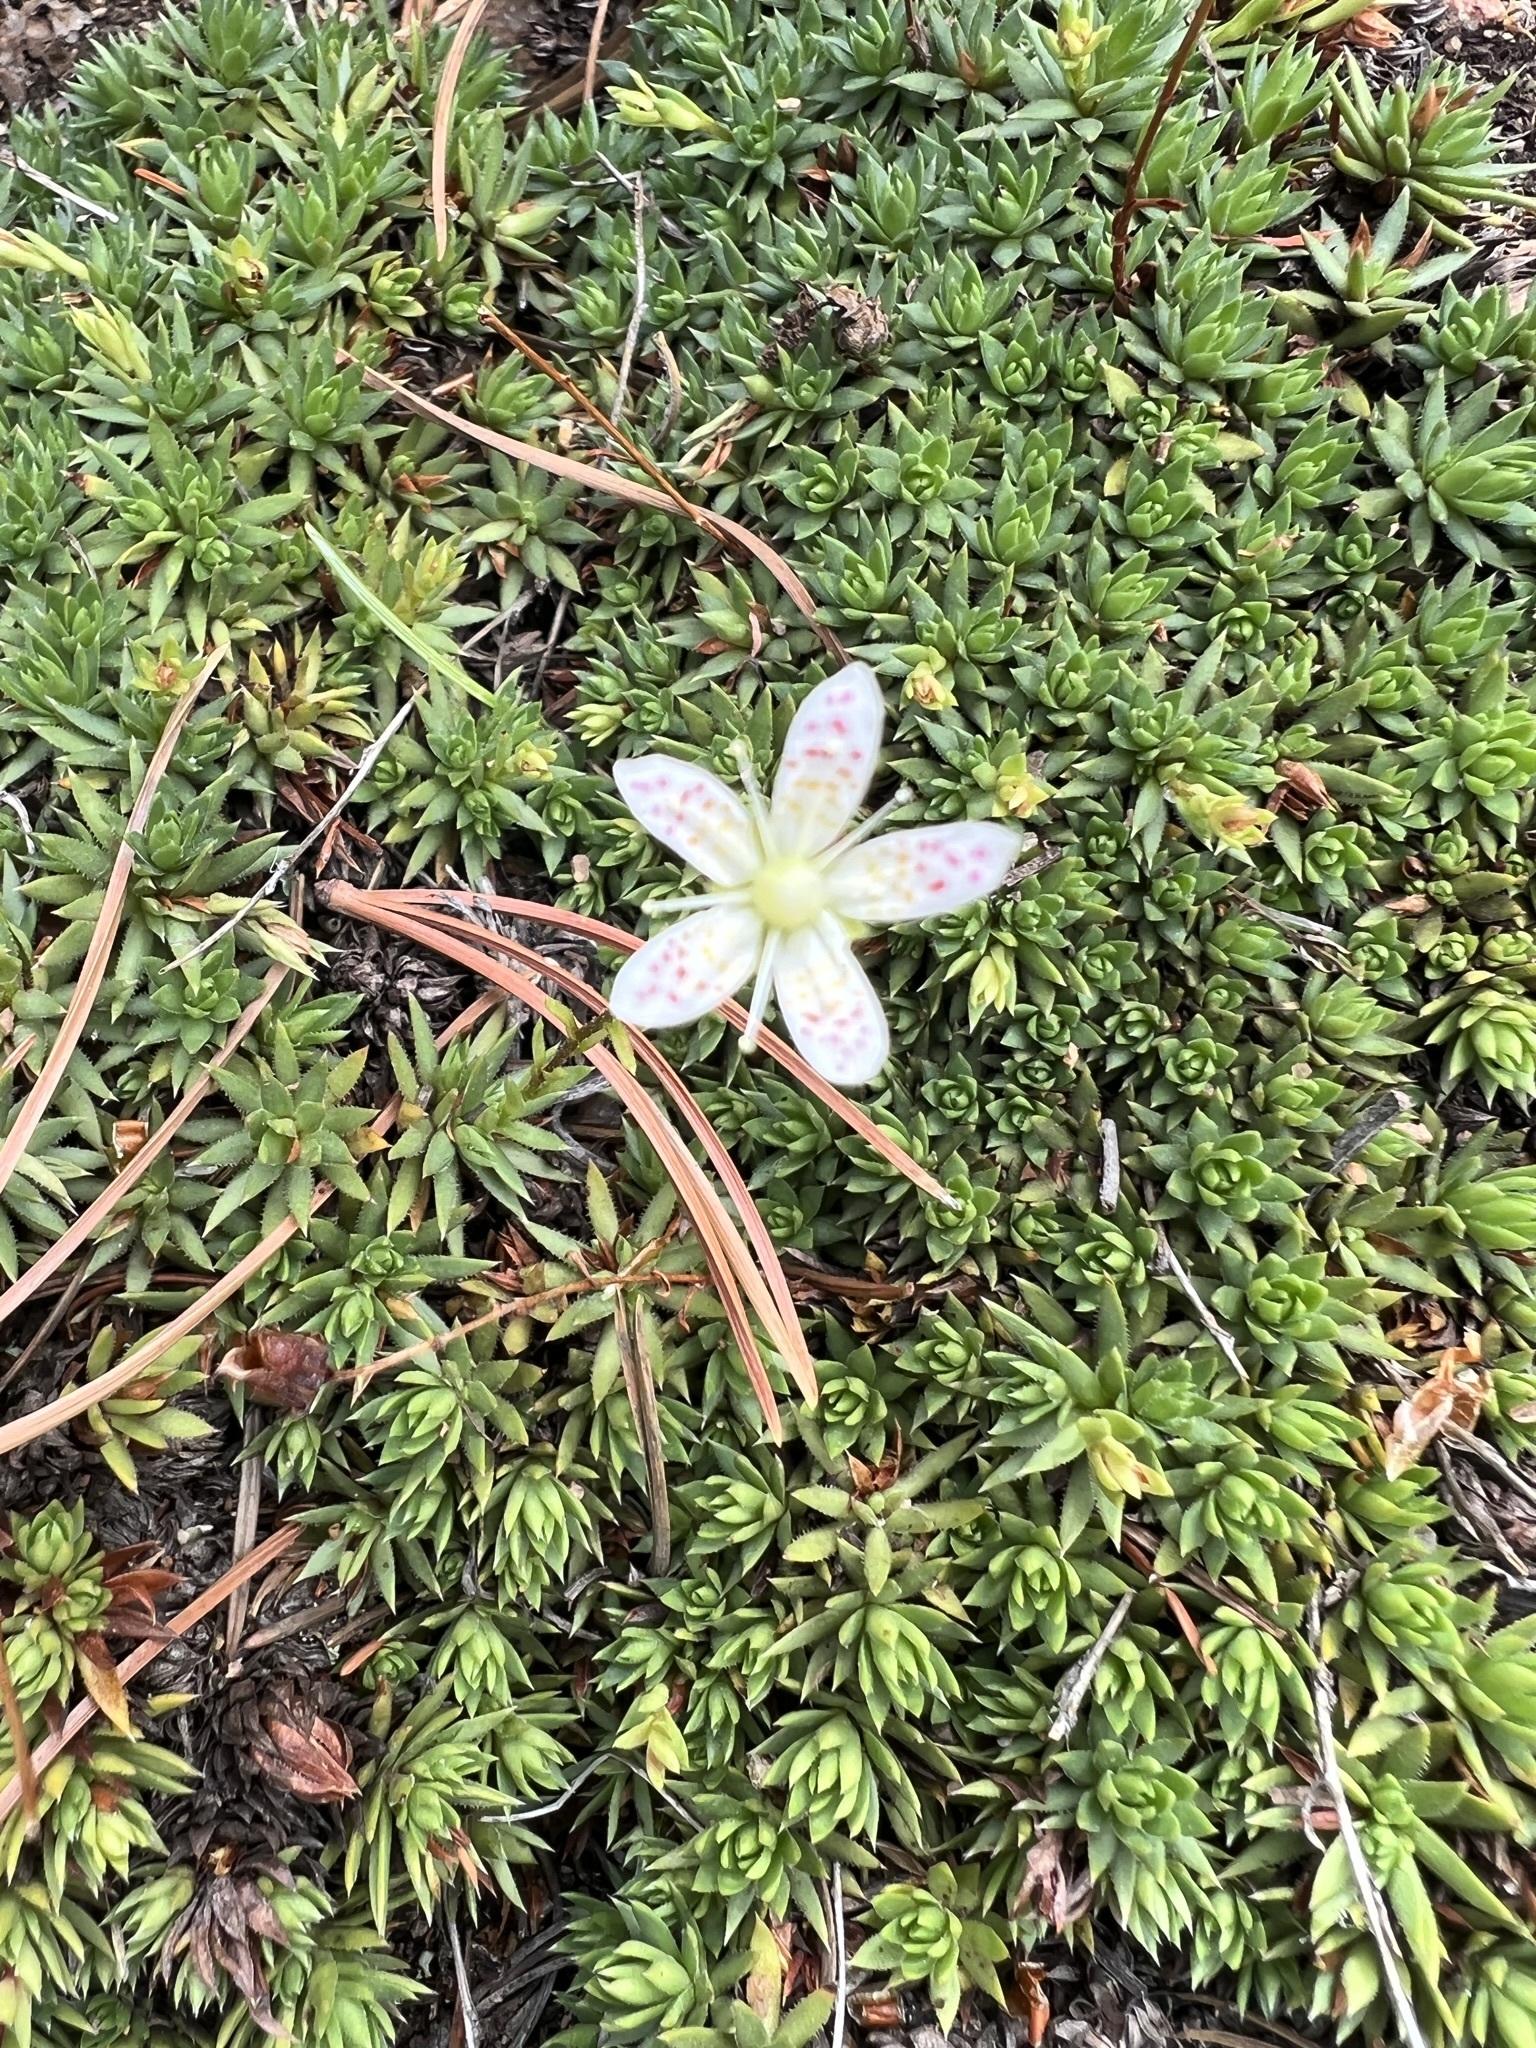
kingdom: Plantae
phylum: Tracheophyta
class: Magnoliopsida
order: Saxifragales
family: Saxifragaceae
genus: Saxifraga
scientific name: Saxifraga bronchialis
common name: Matted saxifrage
